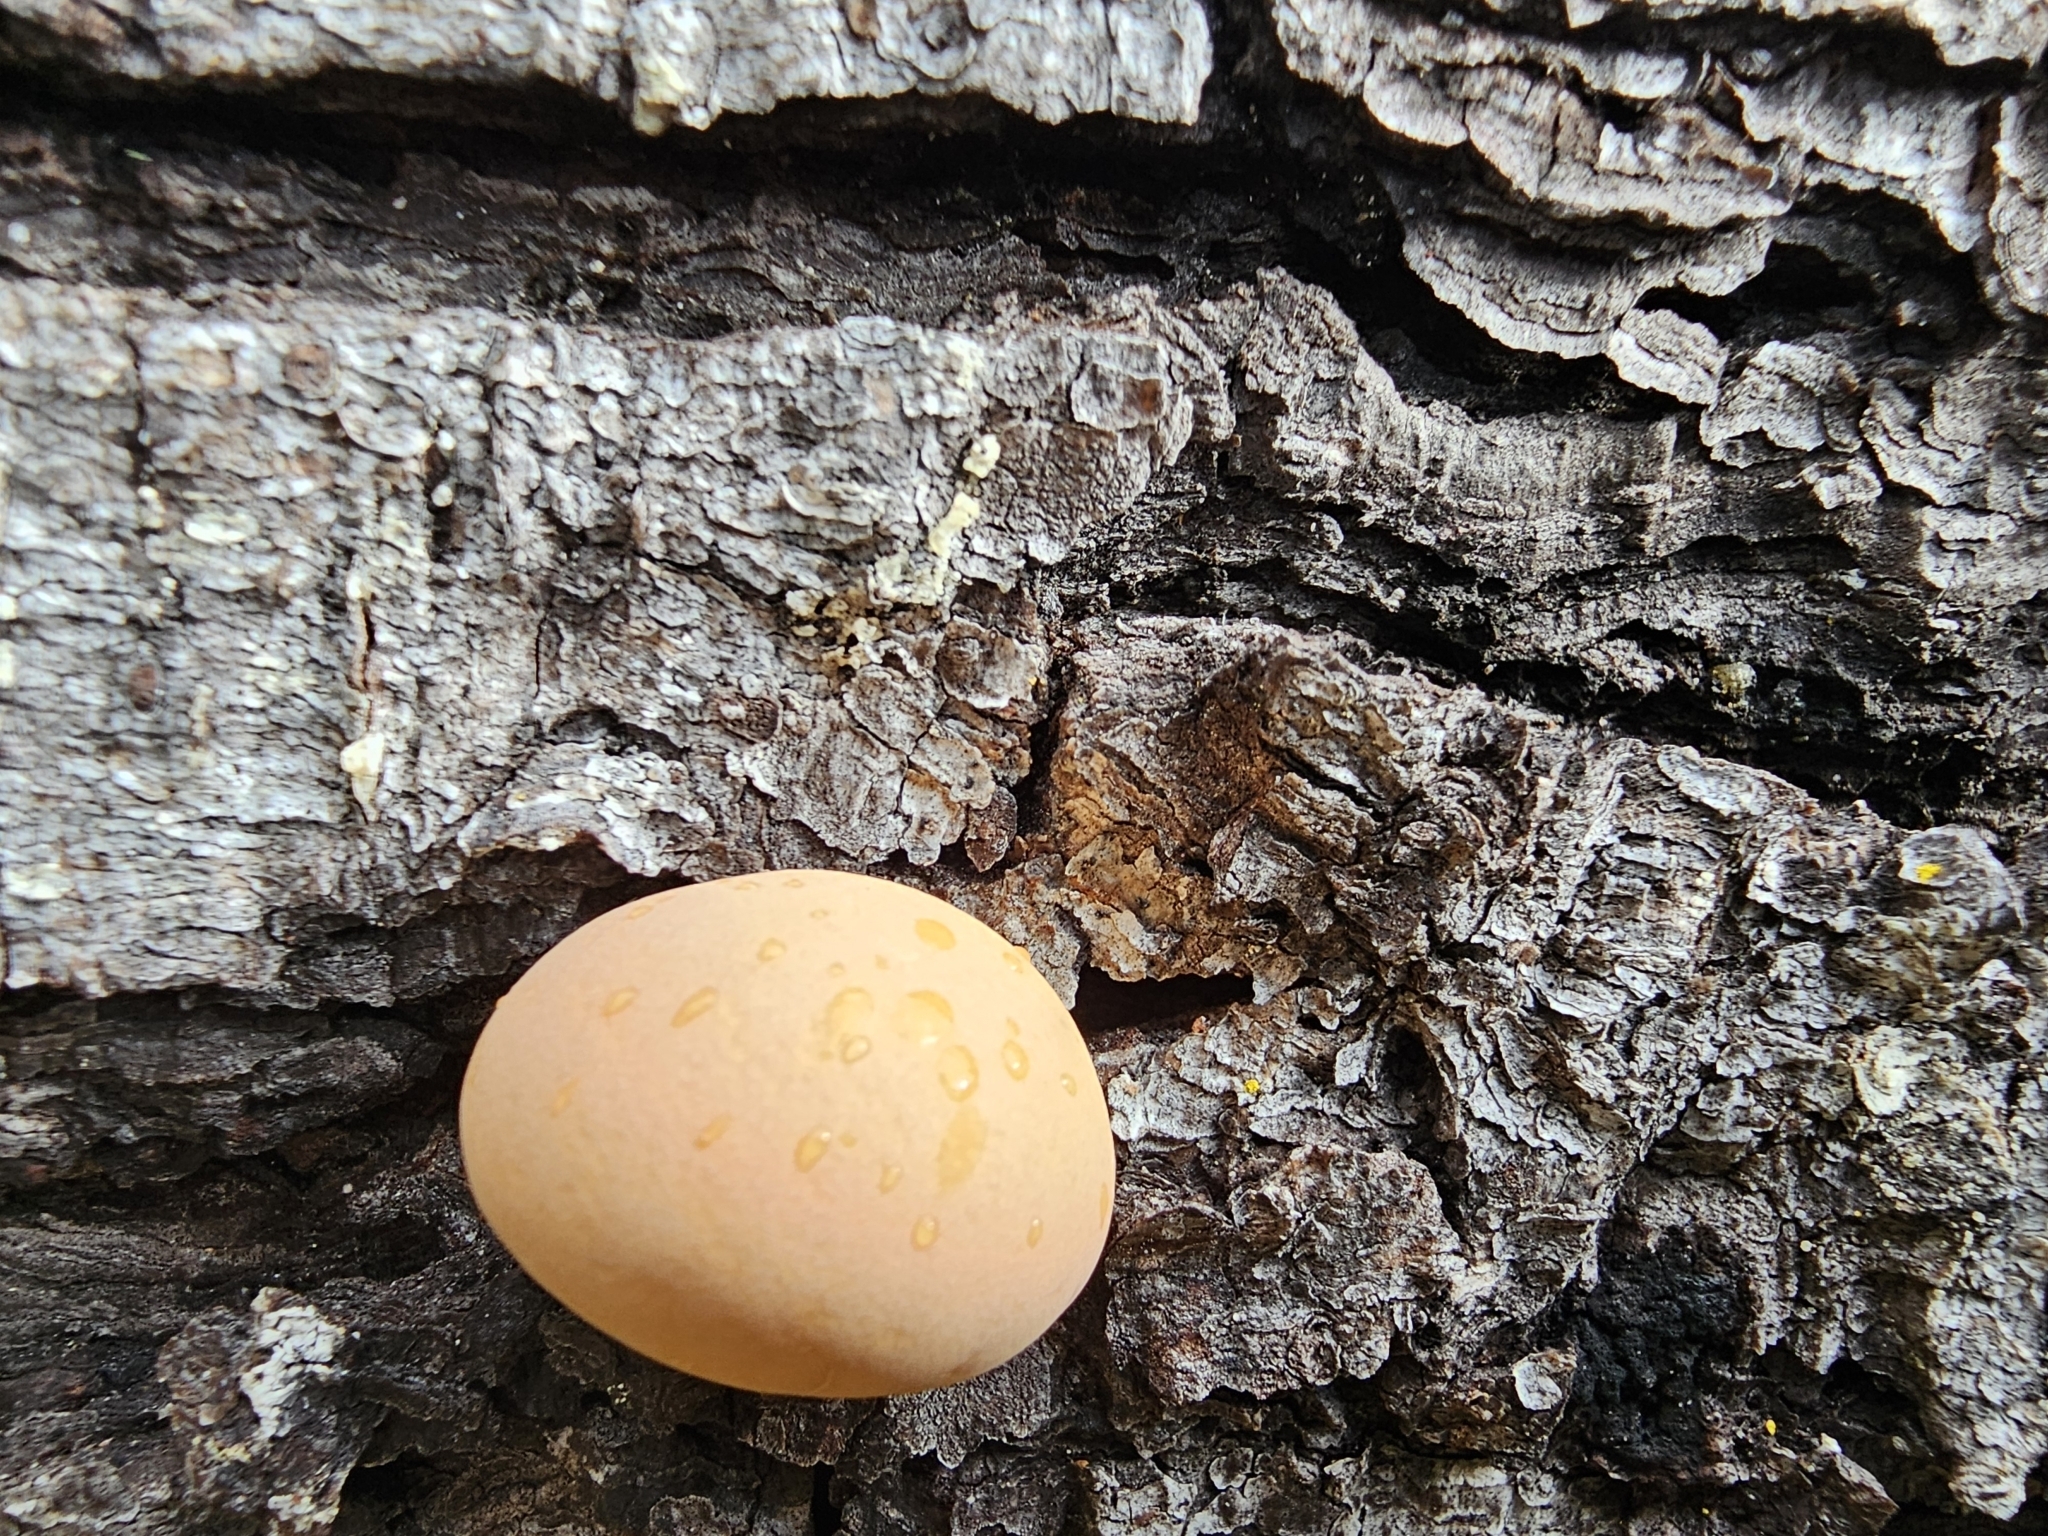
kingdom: Fungi
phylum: Basidiomycota
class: Agaricomycetes
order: Polyporales
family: Polyporaceae
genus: Cryptoporus
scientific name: Cryptoporus volvatus
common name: Veiled polypore
